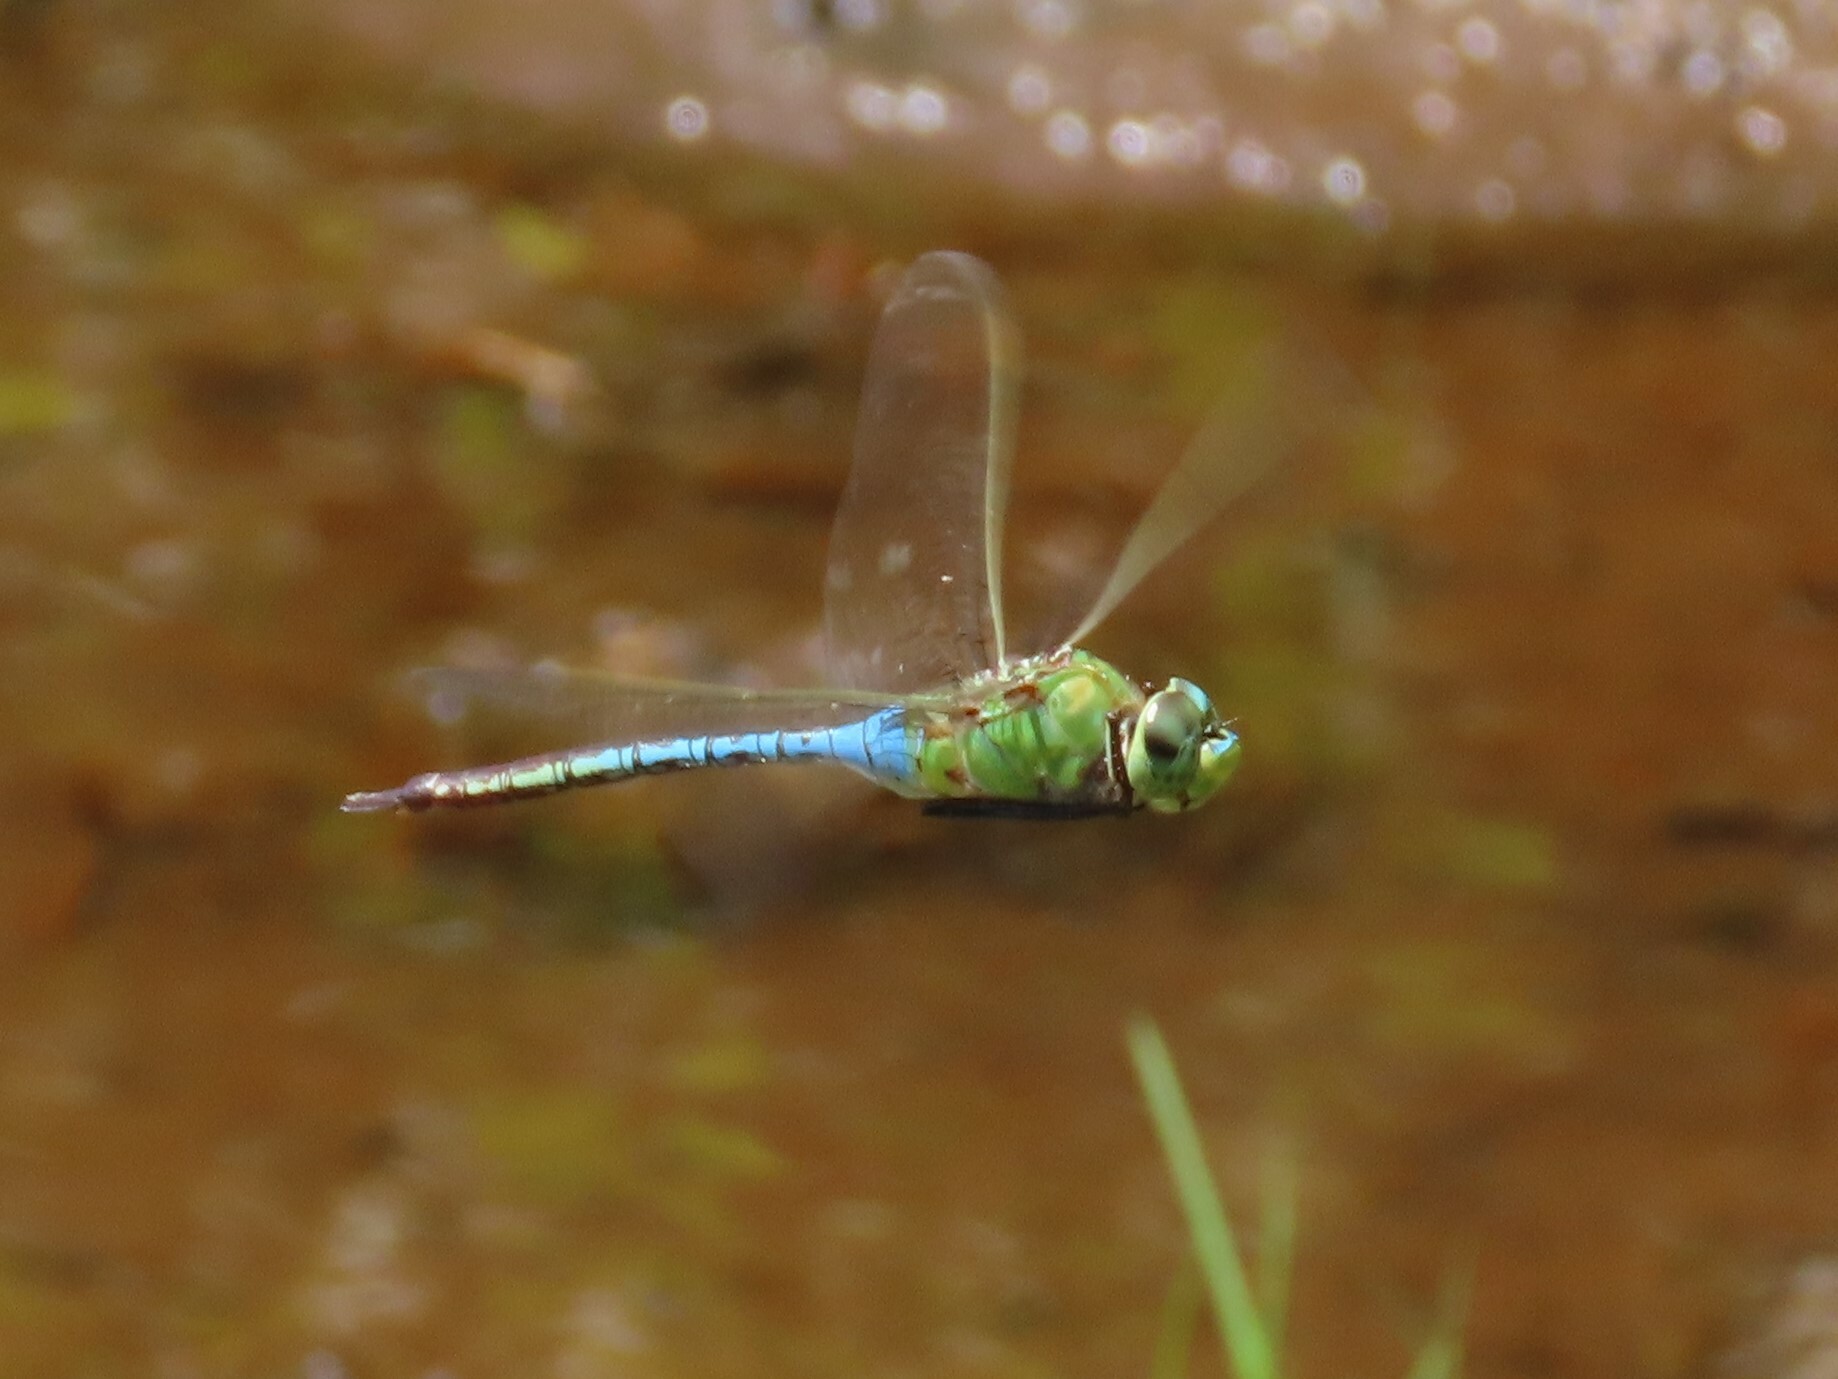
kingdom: Animalia
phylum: Arthropoda
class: Insecta
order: Odonata
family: Aeshnidae
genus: Anax
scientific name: Anax junius
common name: Common green darner
